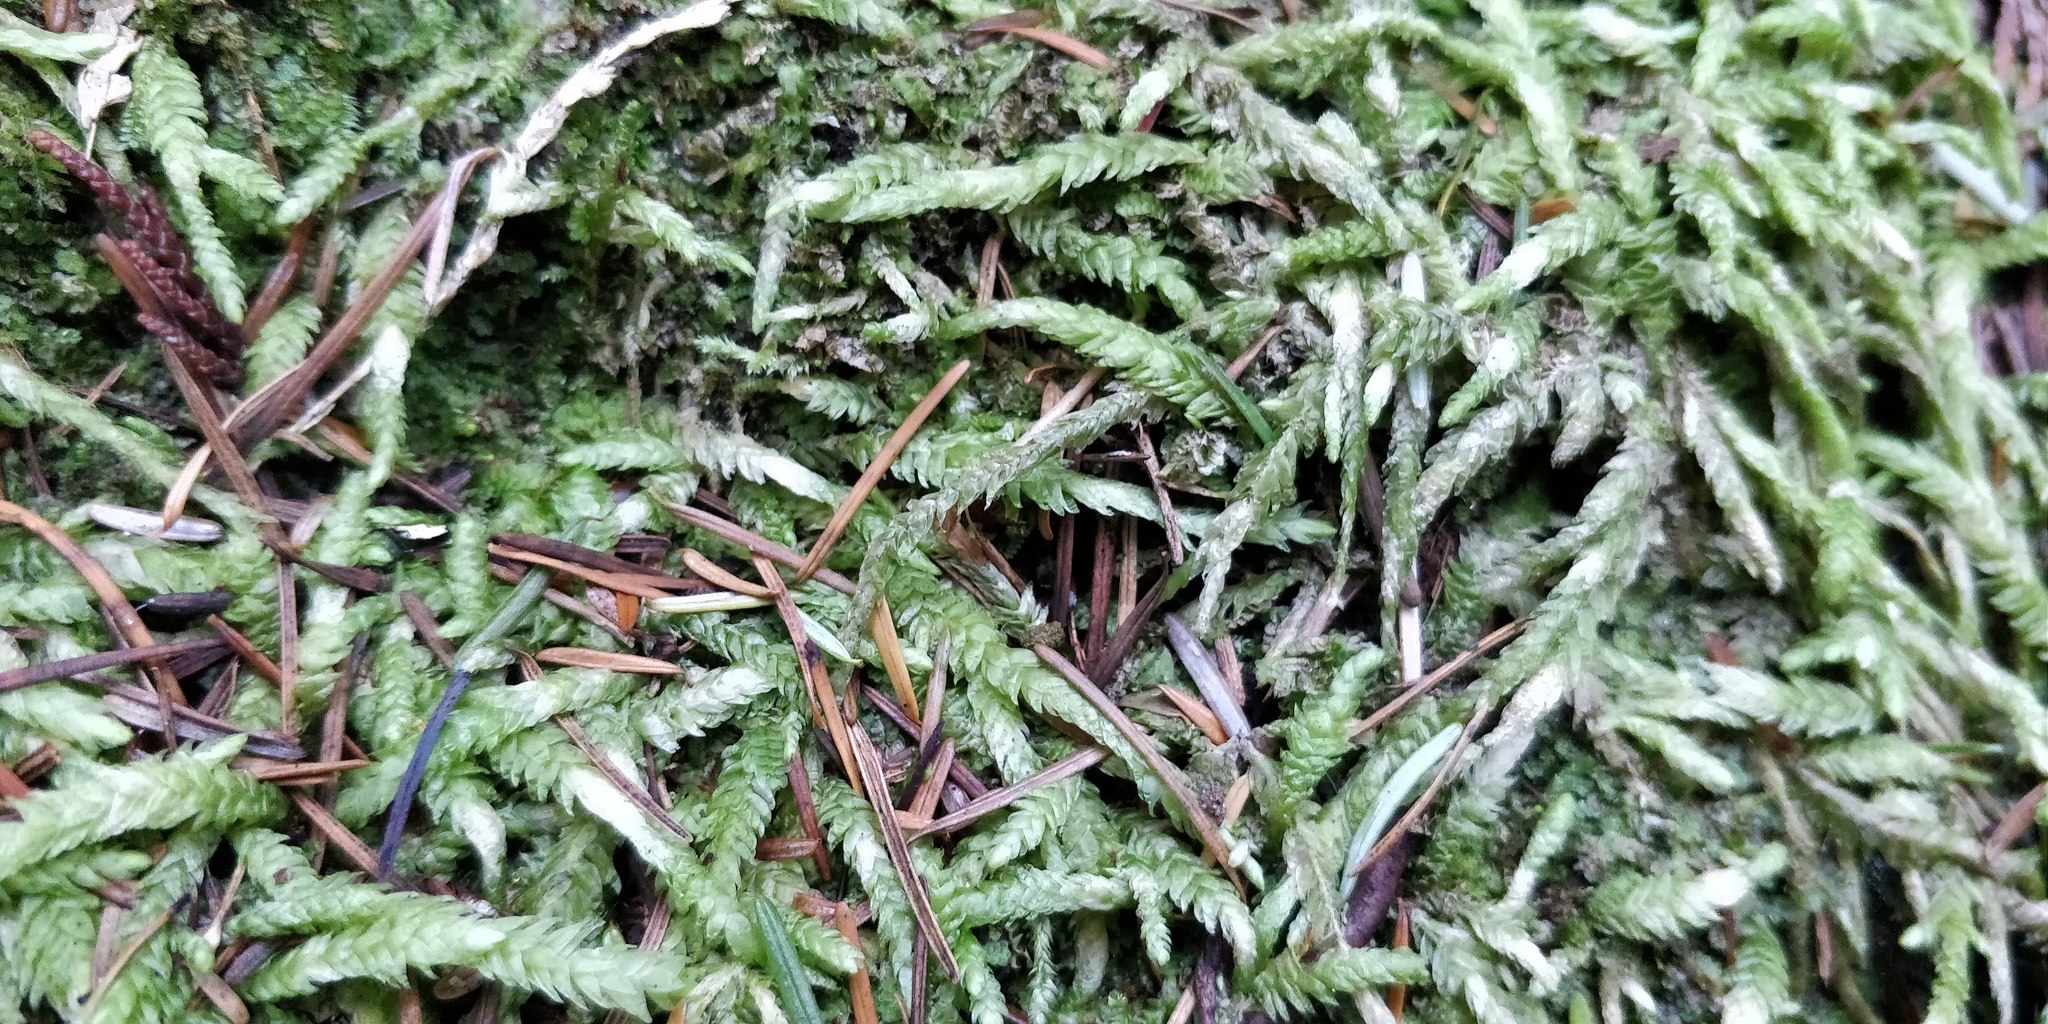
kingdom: Plantae
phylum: Bryophyta
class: Bryopsida
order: Hypnales
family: Plagiotheciaceae
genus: Plagiothecium
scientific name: Plagiothecium undulatum
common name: Waved silk-moss
